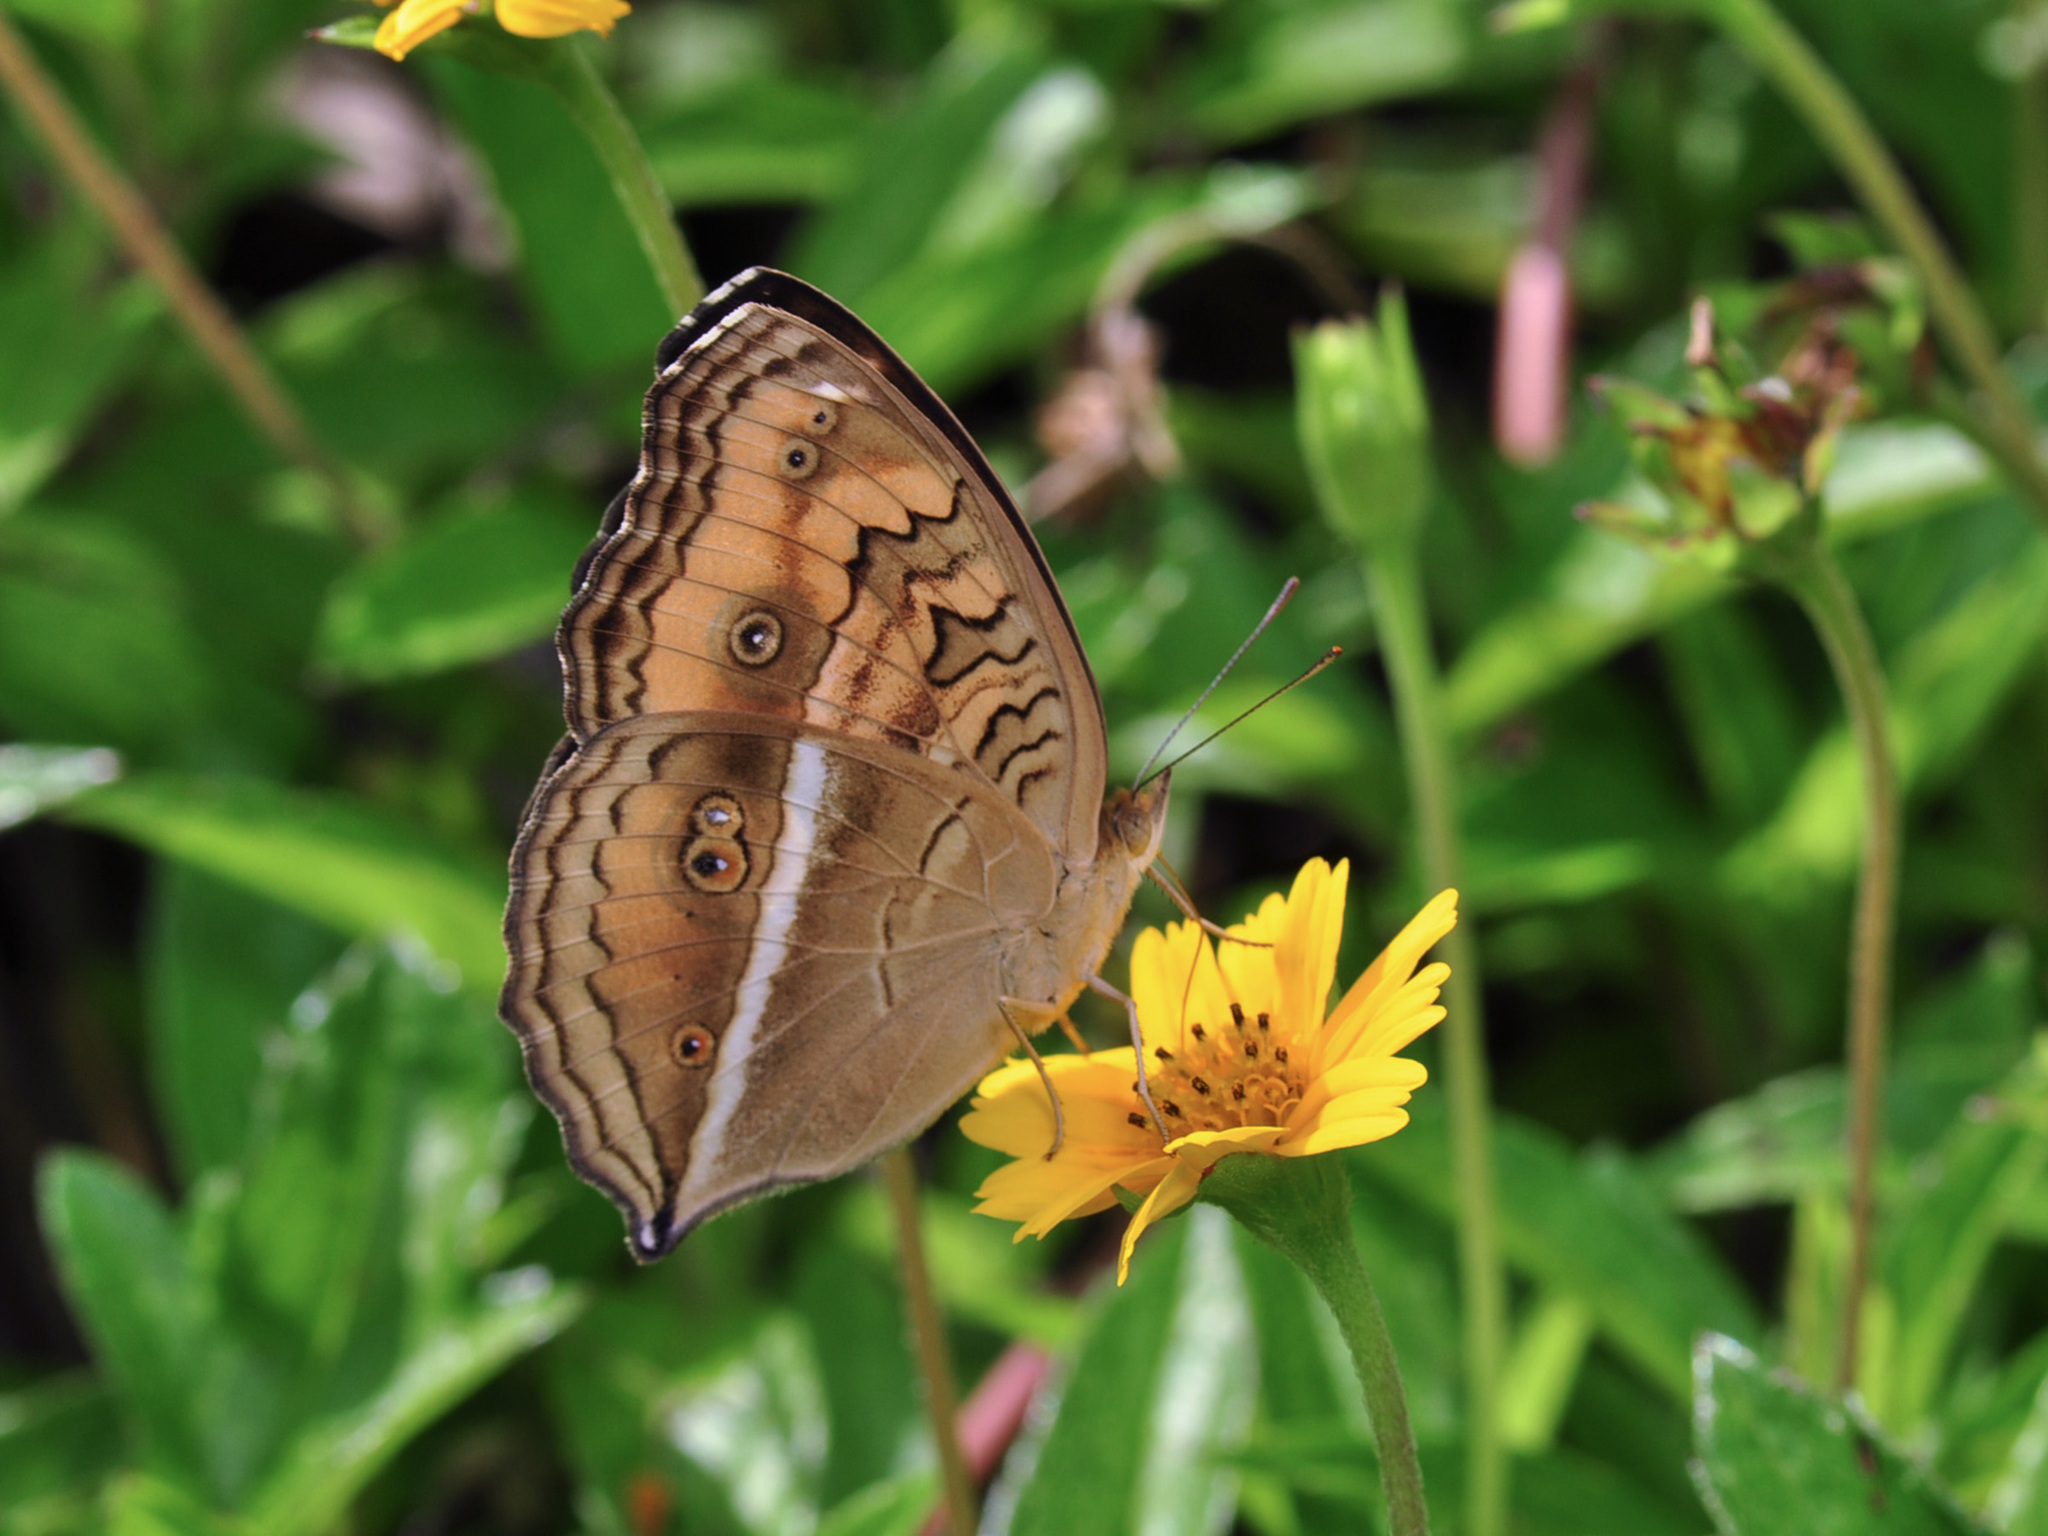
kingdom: Animalia
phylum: Arthropoda
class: Insecta
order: Lepidoptera
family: Nymphalidae
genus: Junonia
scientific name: Junonia almana
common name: Peacock pansy
